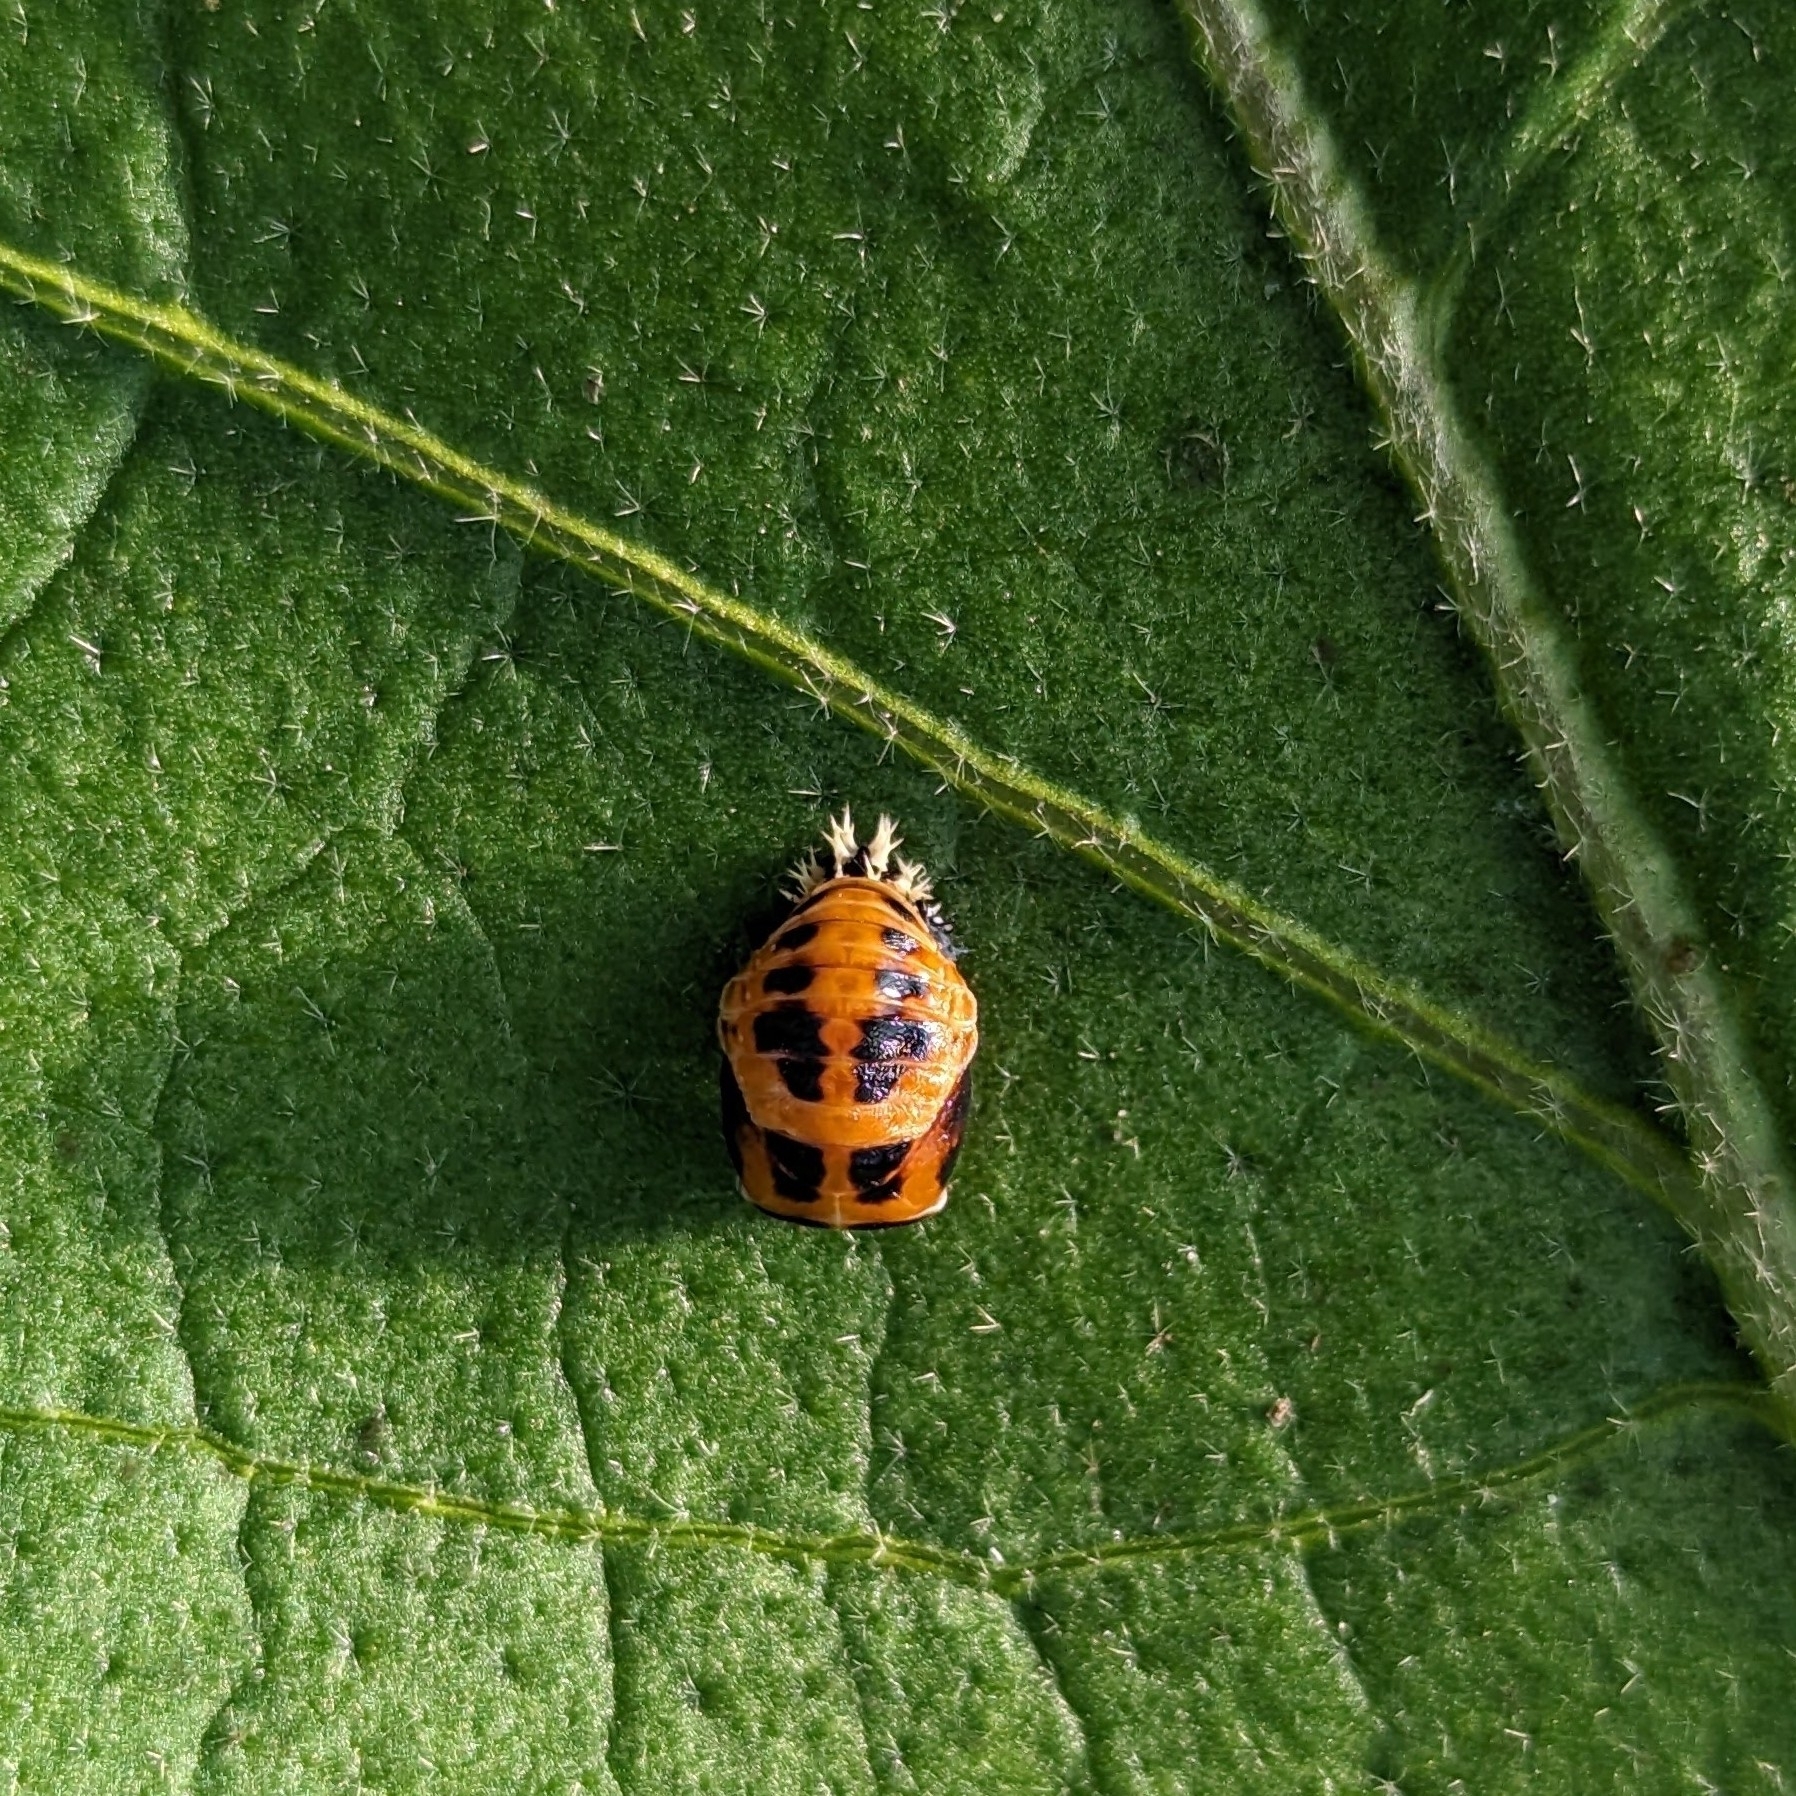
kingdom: Animalia
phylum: Arthropoda
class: Insecta
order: Coleoptera
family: Coccinellidae
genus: Harmonia
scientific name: Harmonia axyridis
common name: Harlequin ladybird
